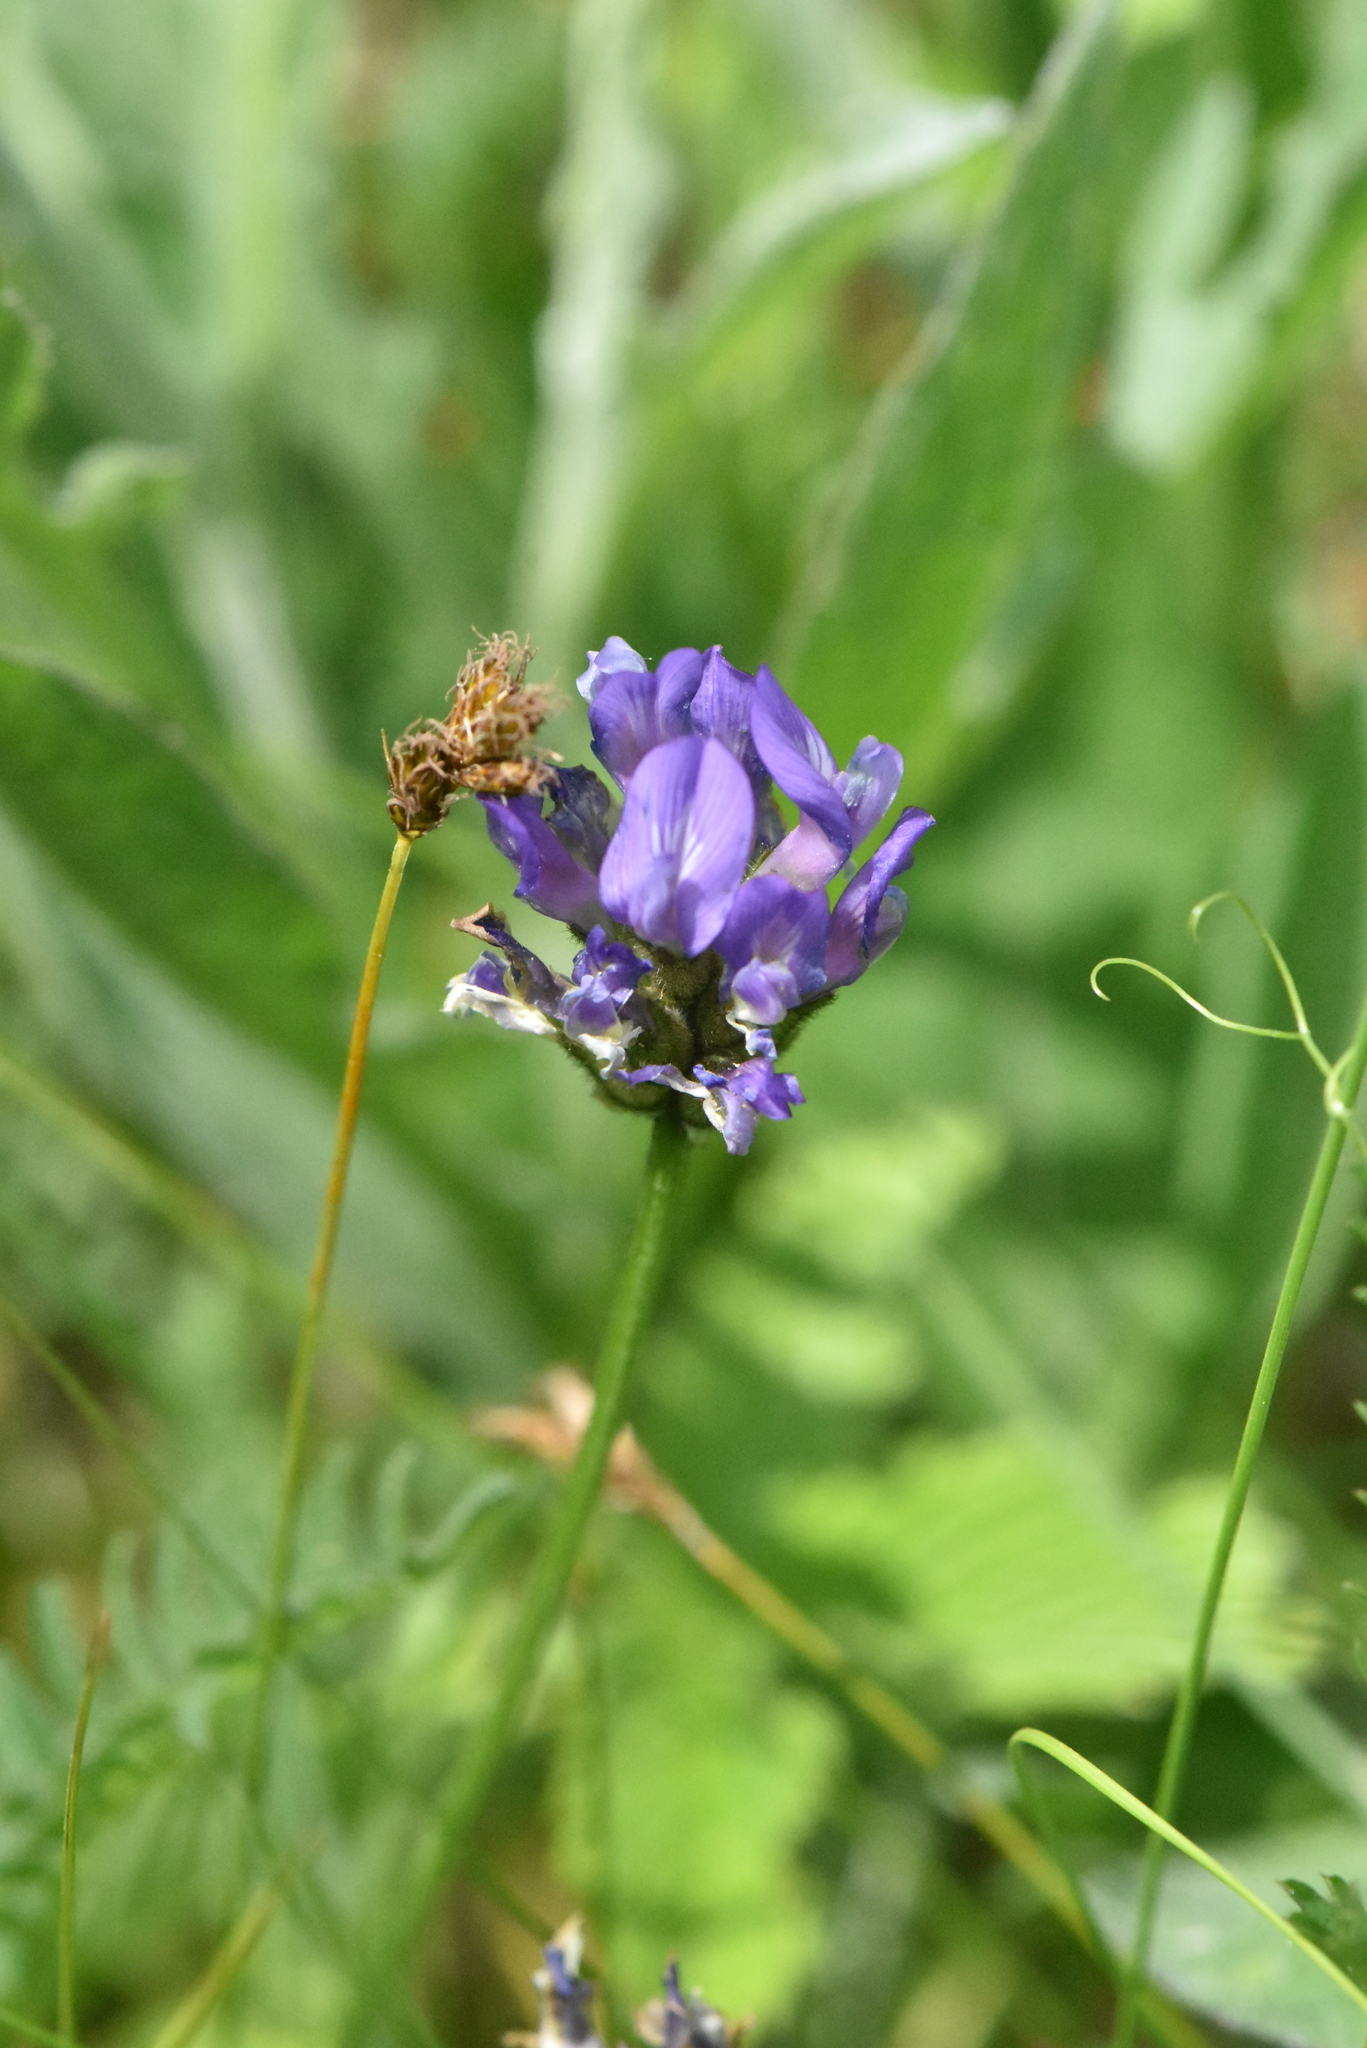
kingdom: Plantae
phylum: Tracheophyta
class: Magnoliopsida
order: Fabales
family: Fabaceae
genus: Astragalus
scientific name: Astragalus danicus
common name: Purple milk-vetch
